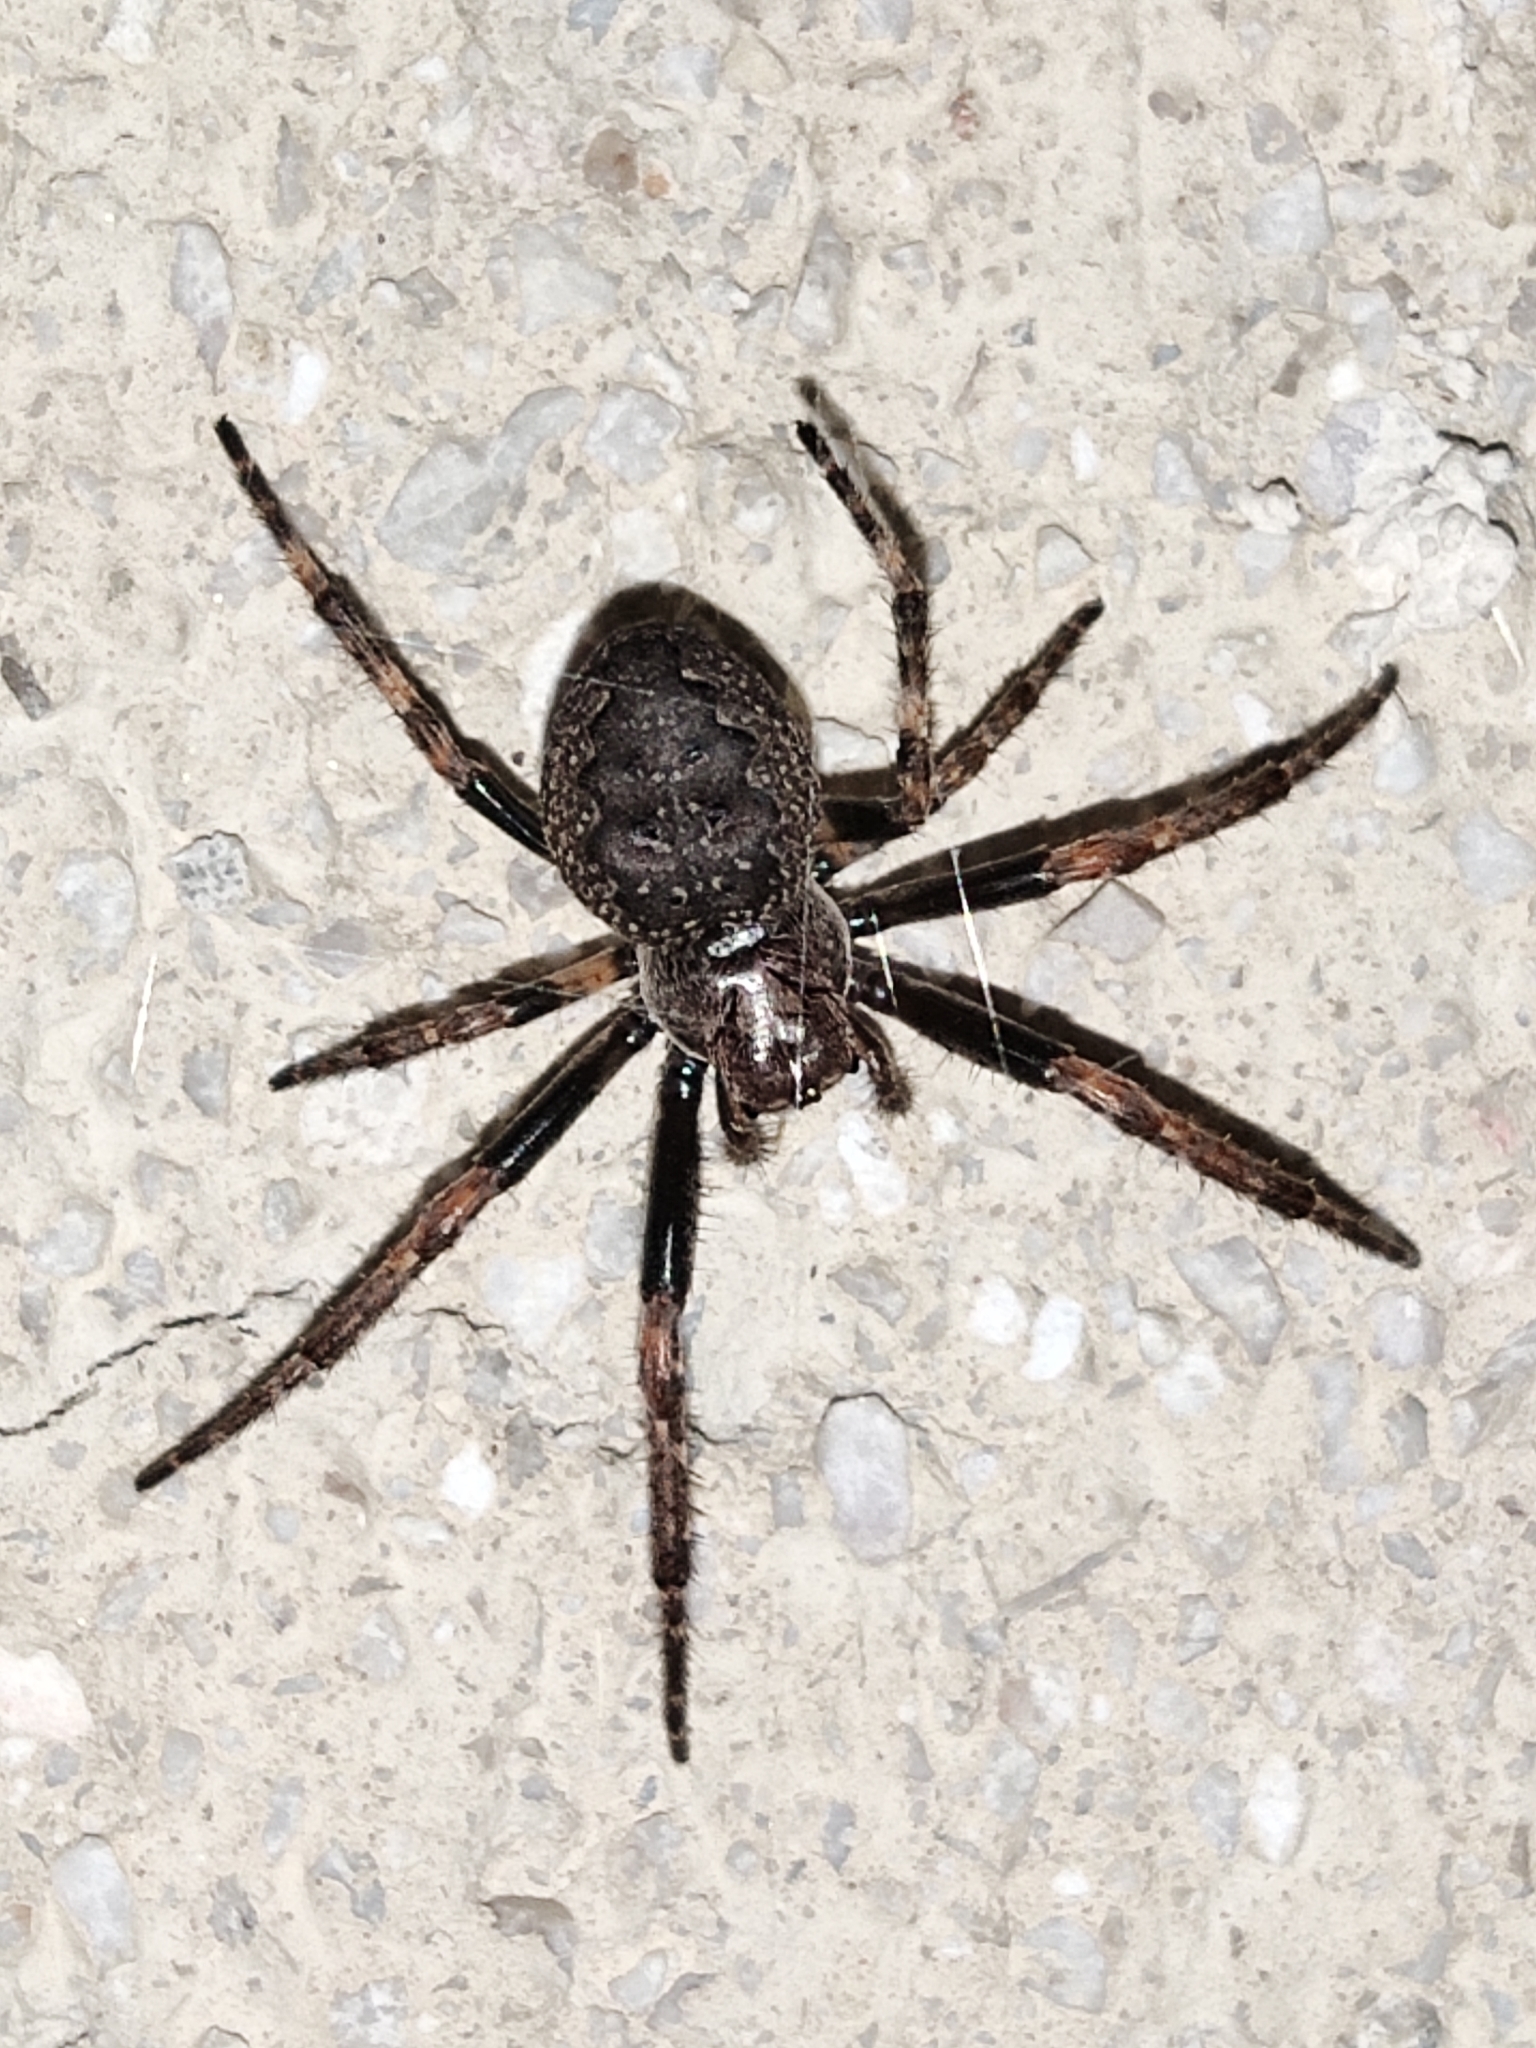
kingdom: Animalia
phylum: Arthropoda
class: Arachnida
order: Araneae
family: Araneidae
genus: Nuctenea
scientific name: Nuctenea umbratica
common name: Toad spider
